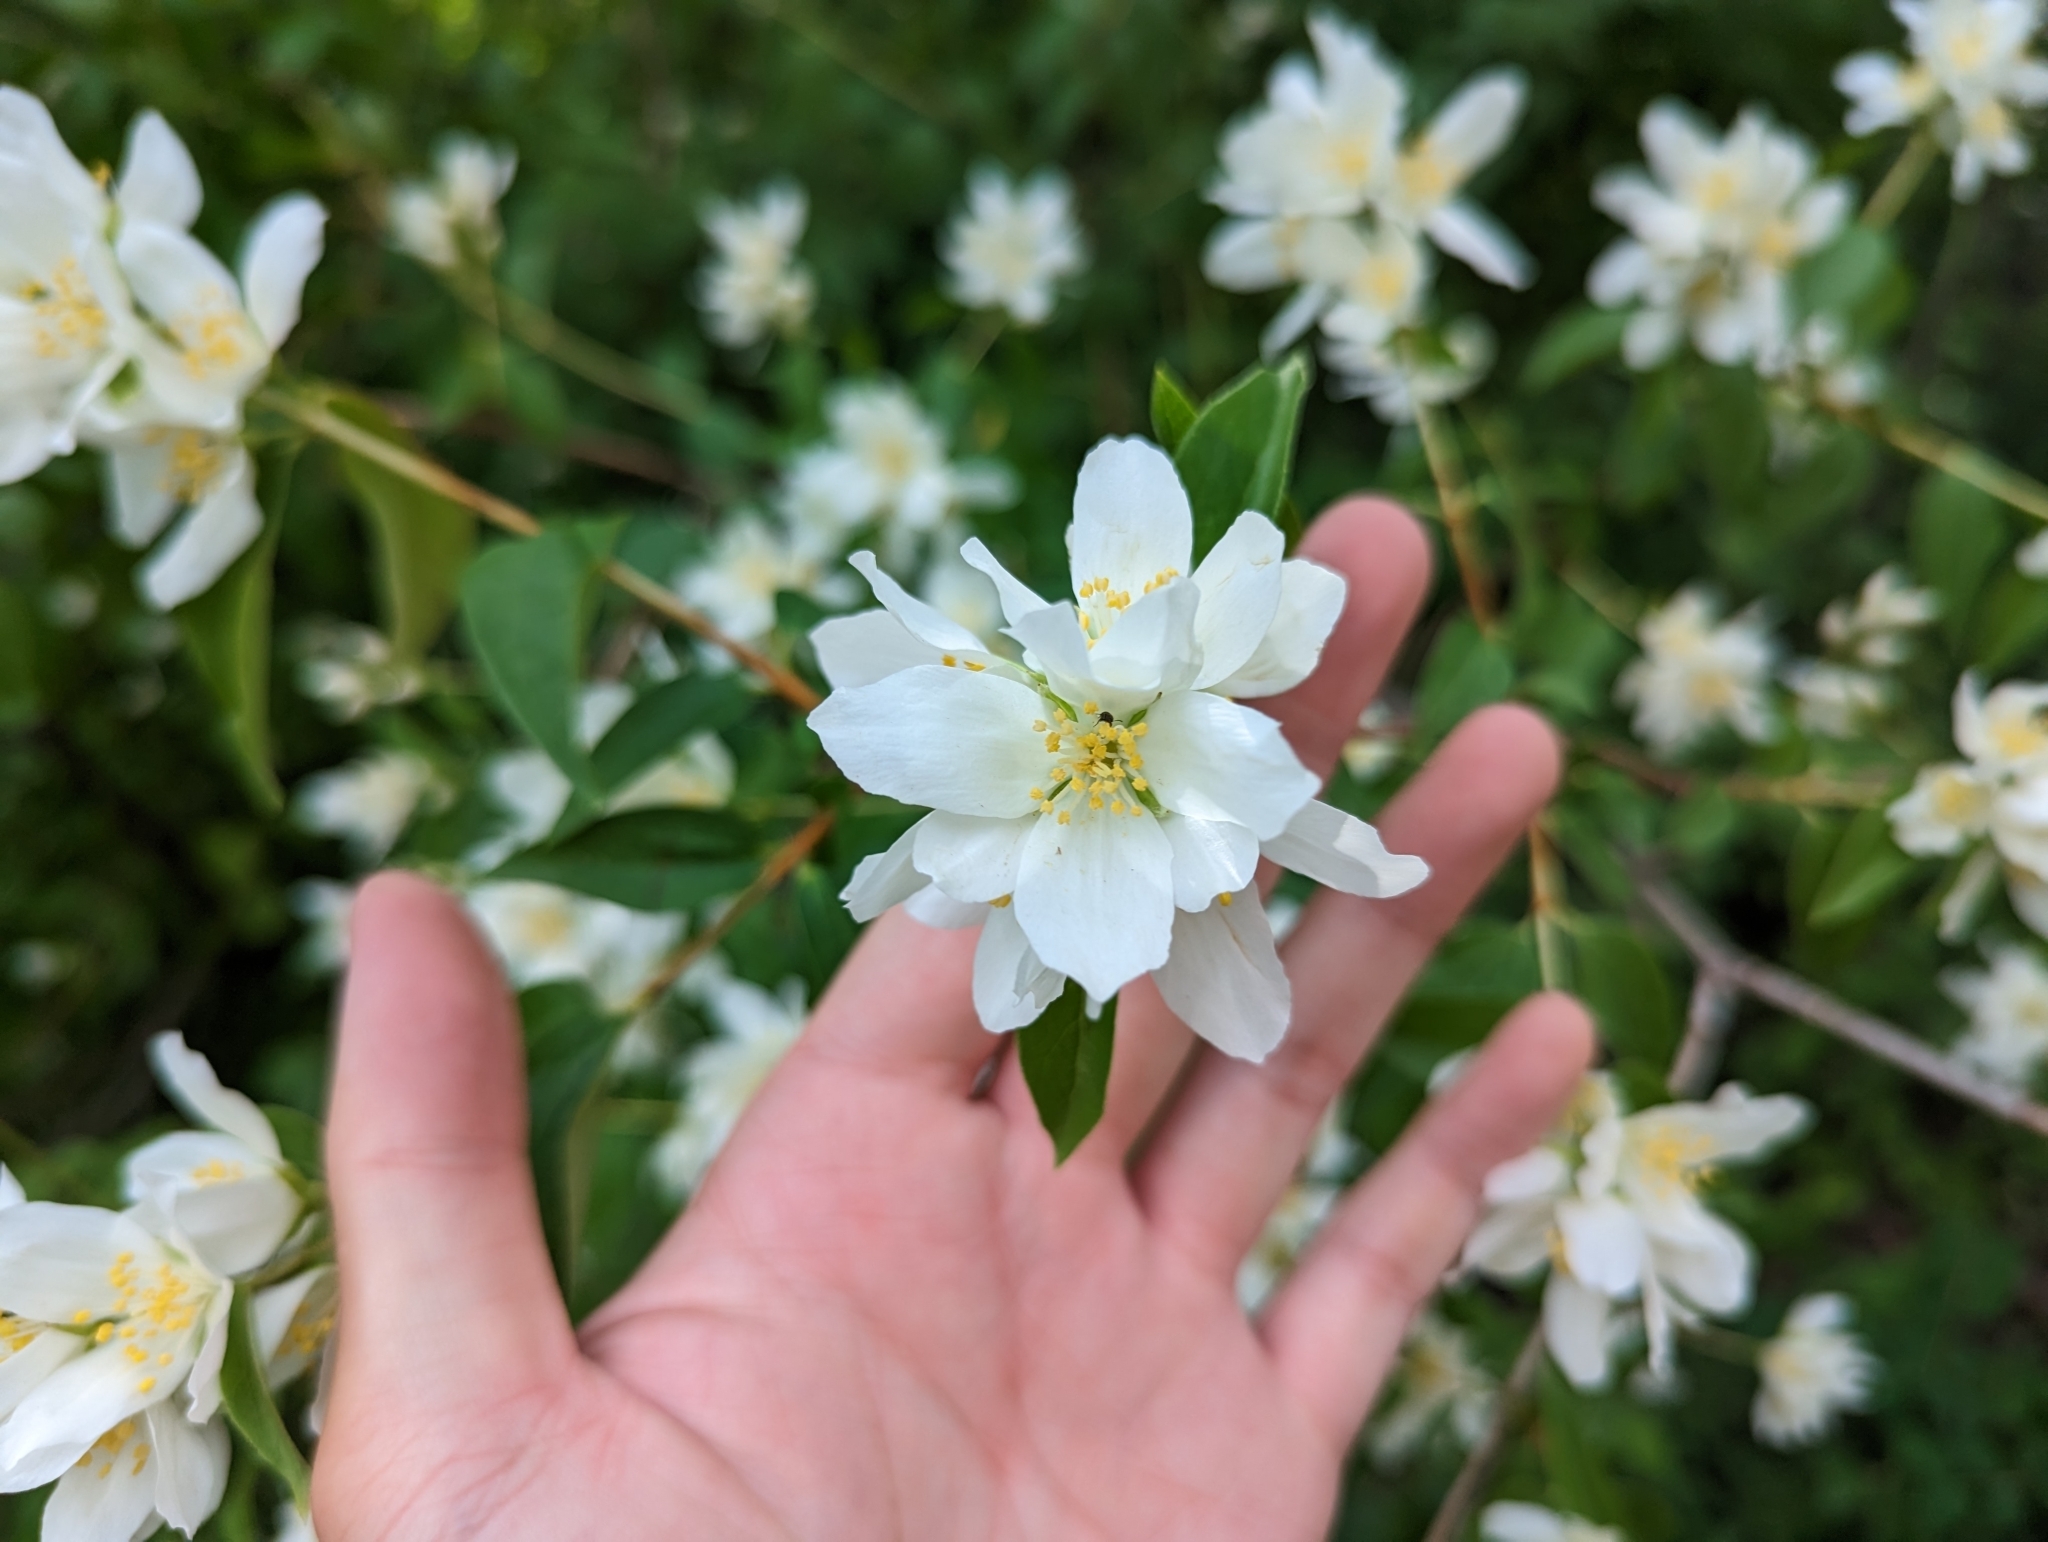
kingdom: Plantae
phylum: Tracheophyta
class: Magnoliopsida
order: Cornales
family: Hydrangeaceae
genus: Philadelphus
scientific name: Philadelphus lewisii
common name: Lewis's mock orange
